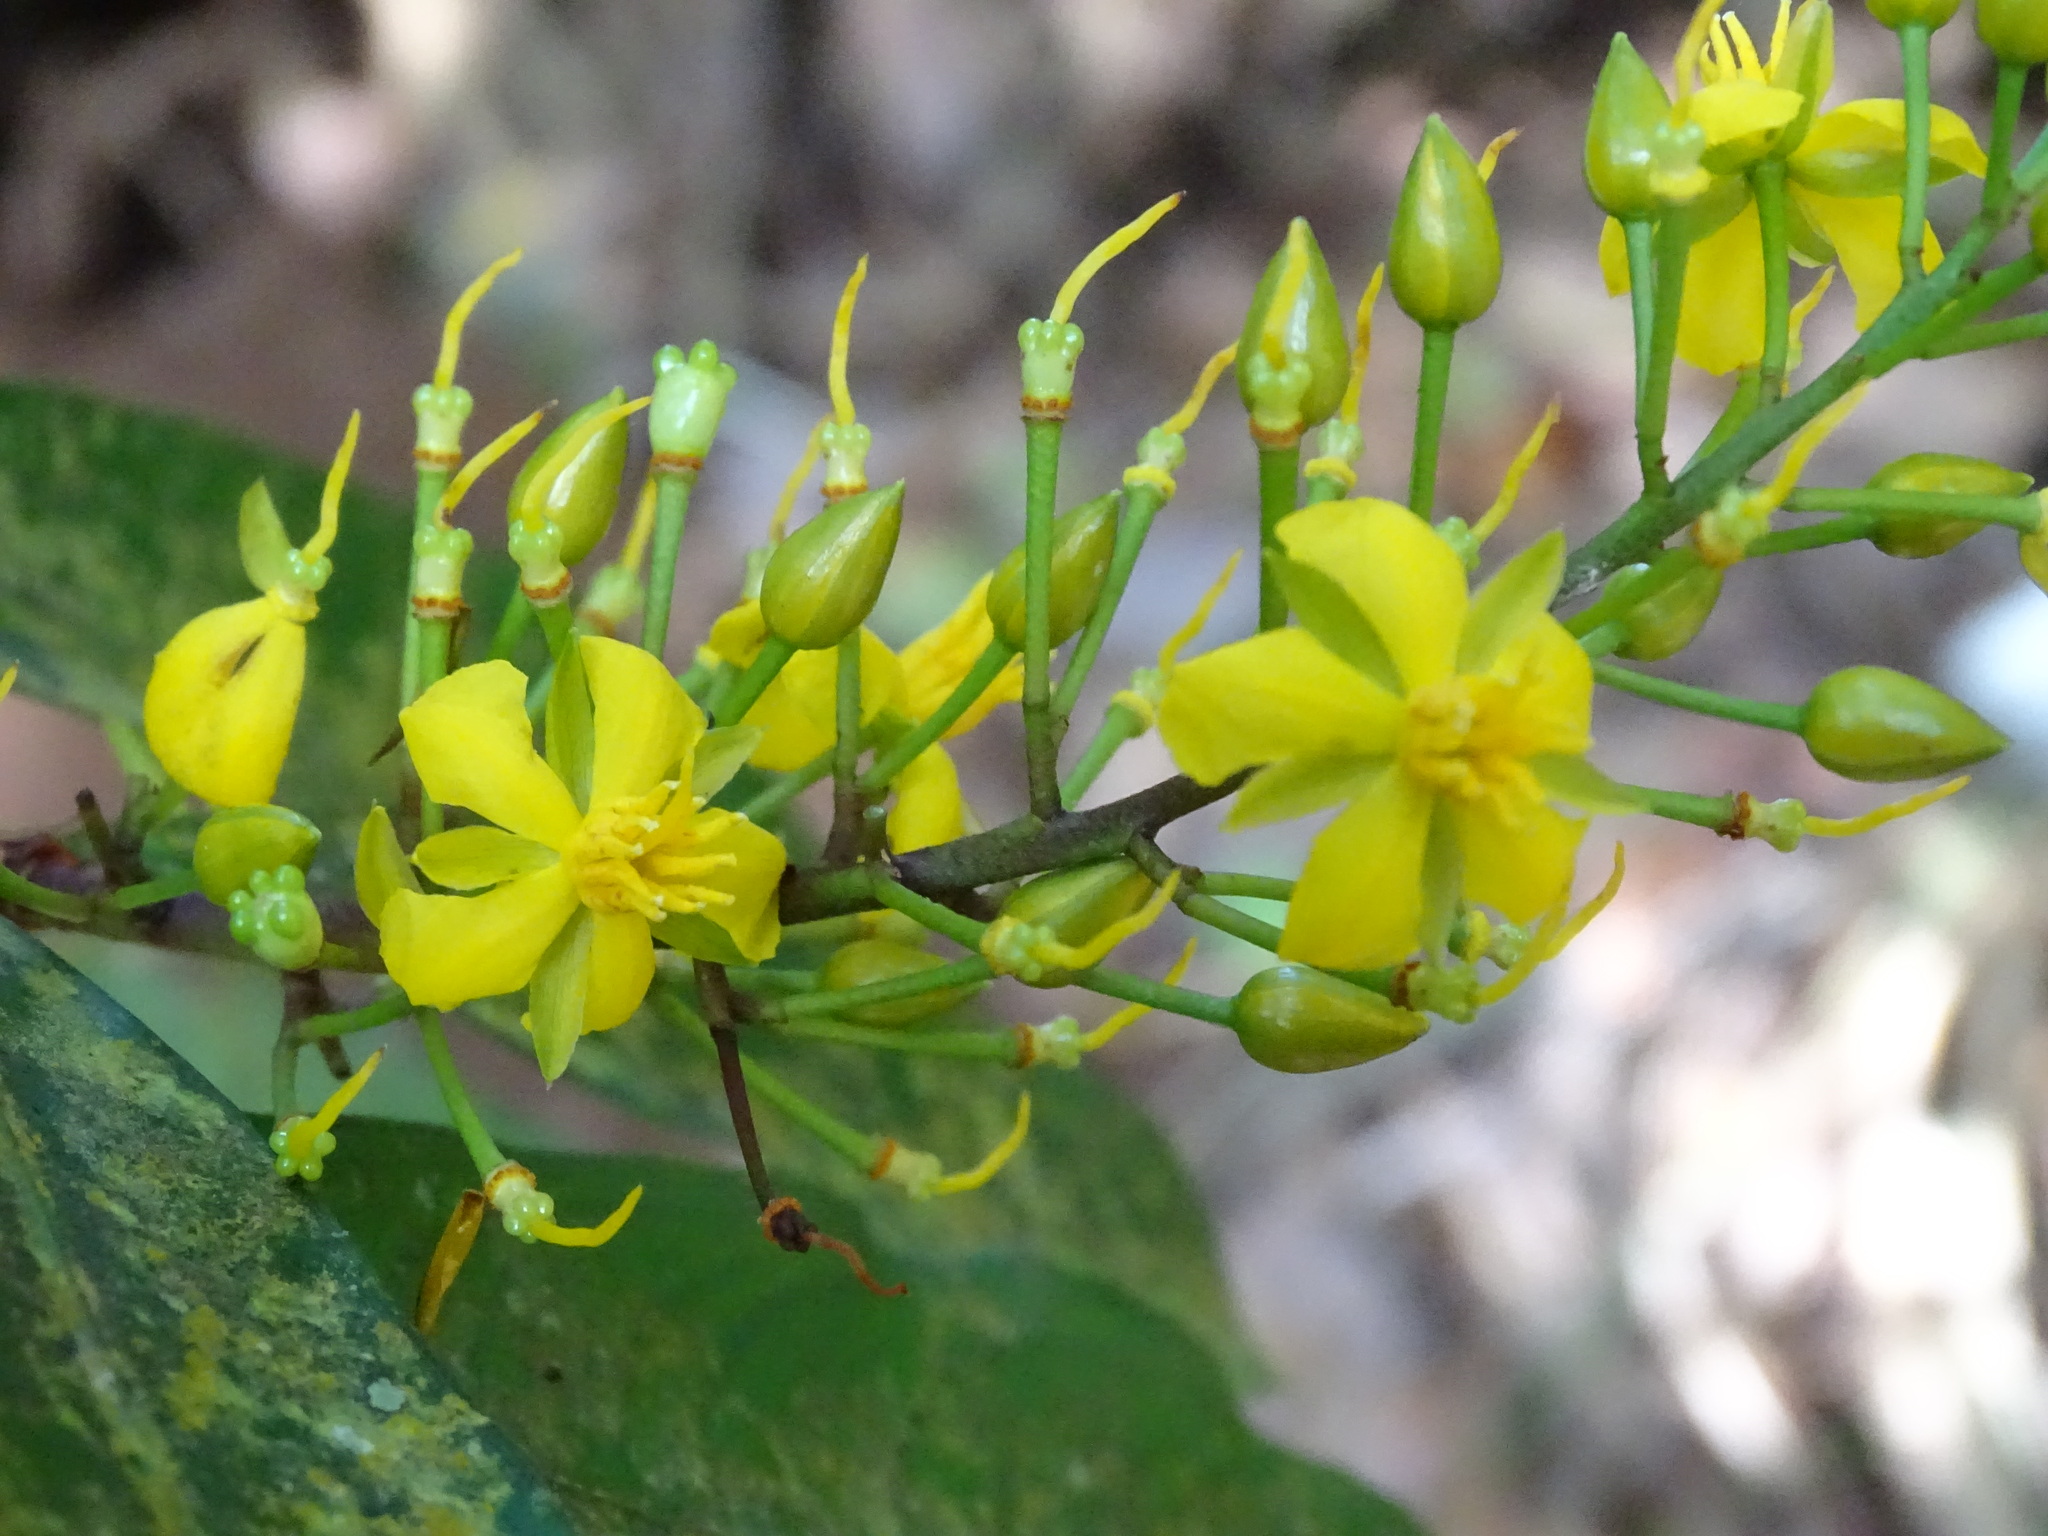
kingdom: Plantae
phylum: Tracheophyta
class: Magnoliopsida
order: Malpighiales
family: Ochnaceae
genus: Ouratea
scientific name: Ouratea lucens
